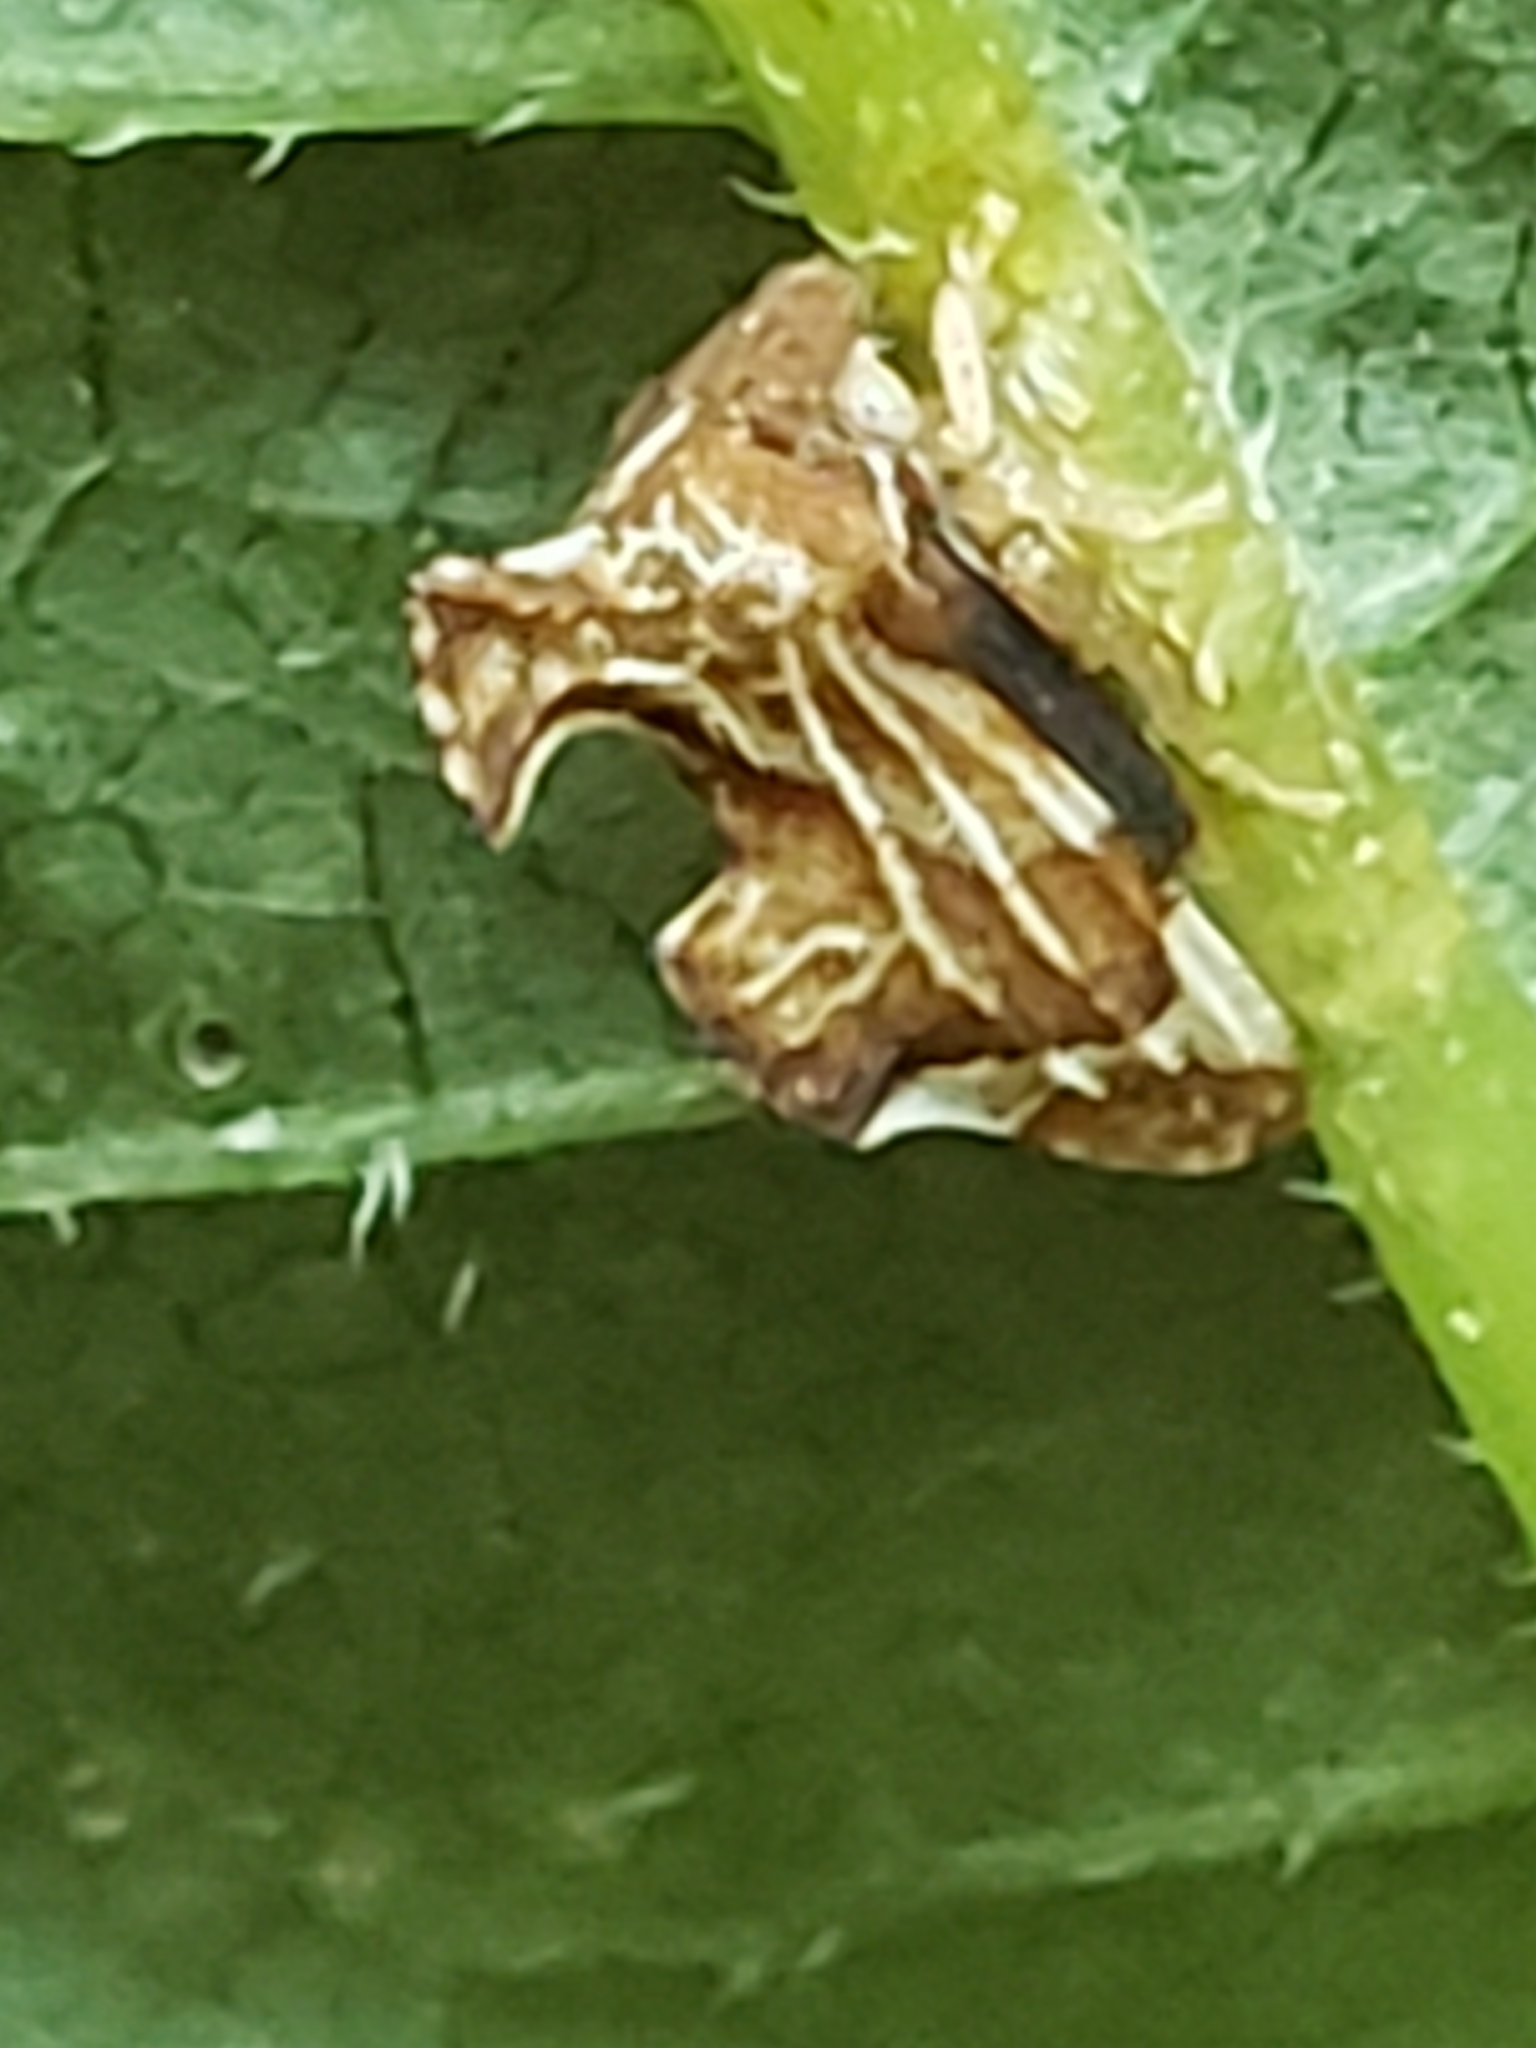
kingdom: Animalia
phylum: Arthropoda
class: Insecta
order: Hemiptera
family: Membracidae
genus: Entylia
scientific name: Entylia carinata
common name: Keeled treehopper
